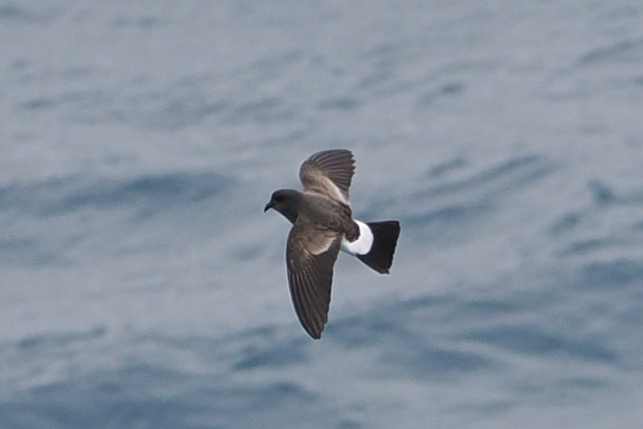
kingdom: Animalia
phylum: Chordata
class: Aves
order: Procellariiformes
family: Hydrobatidae
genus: Fregetta
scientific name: Fregetta tropica
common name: Black-bellied storm-petrel
